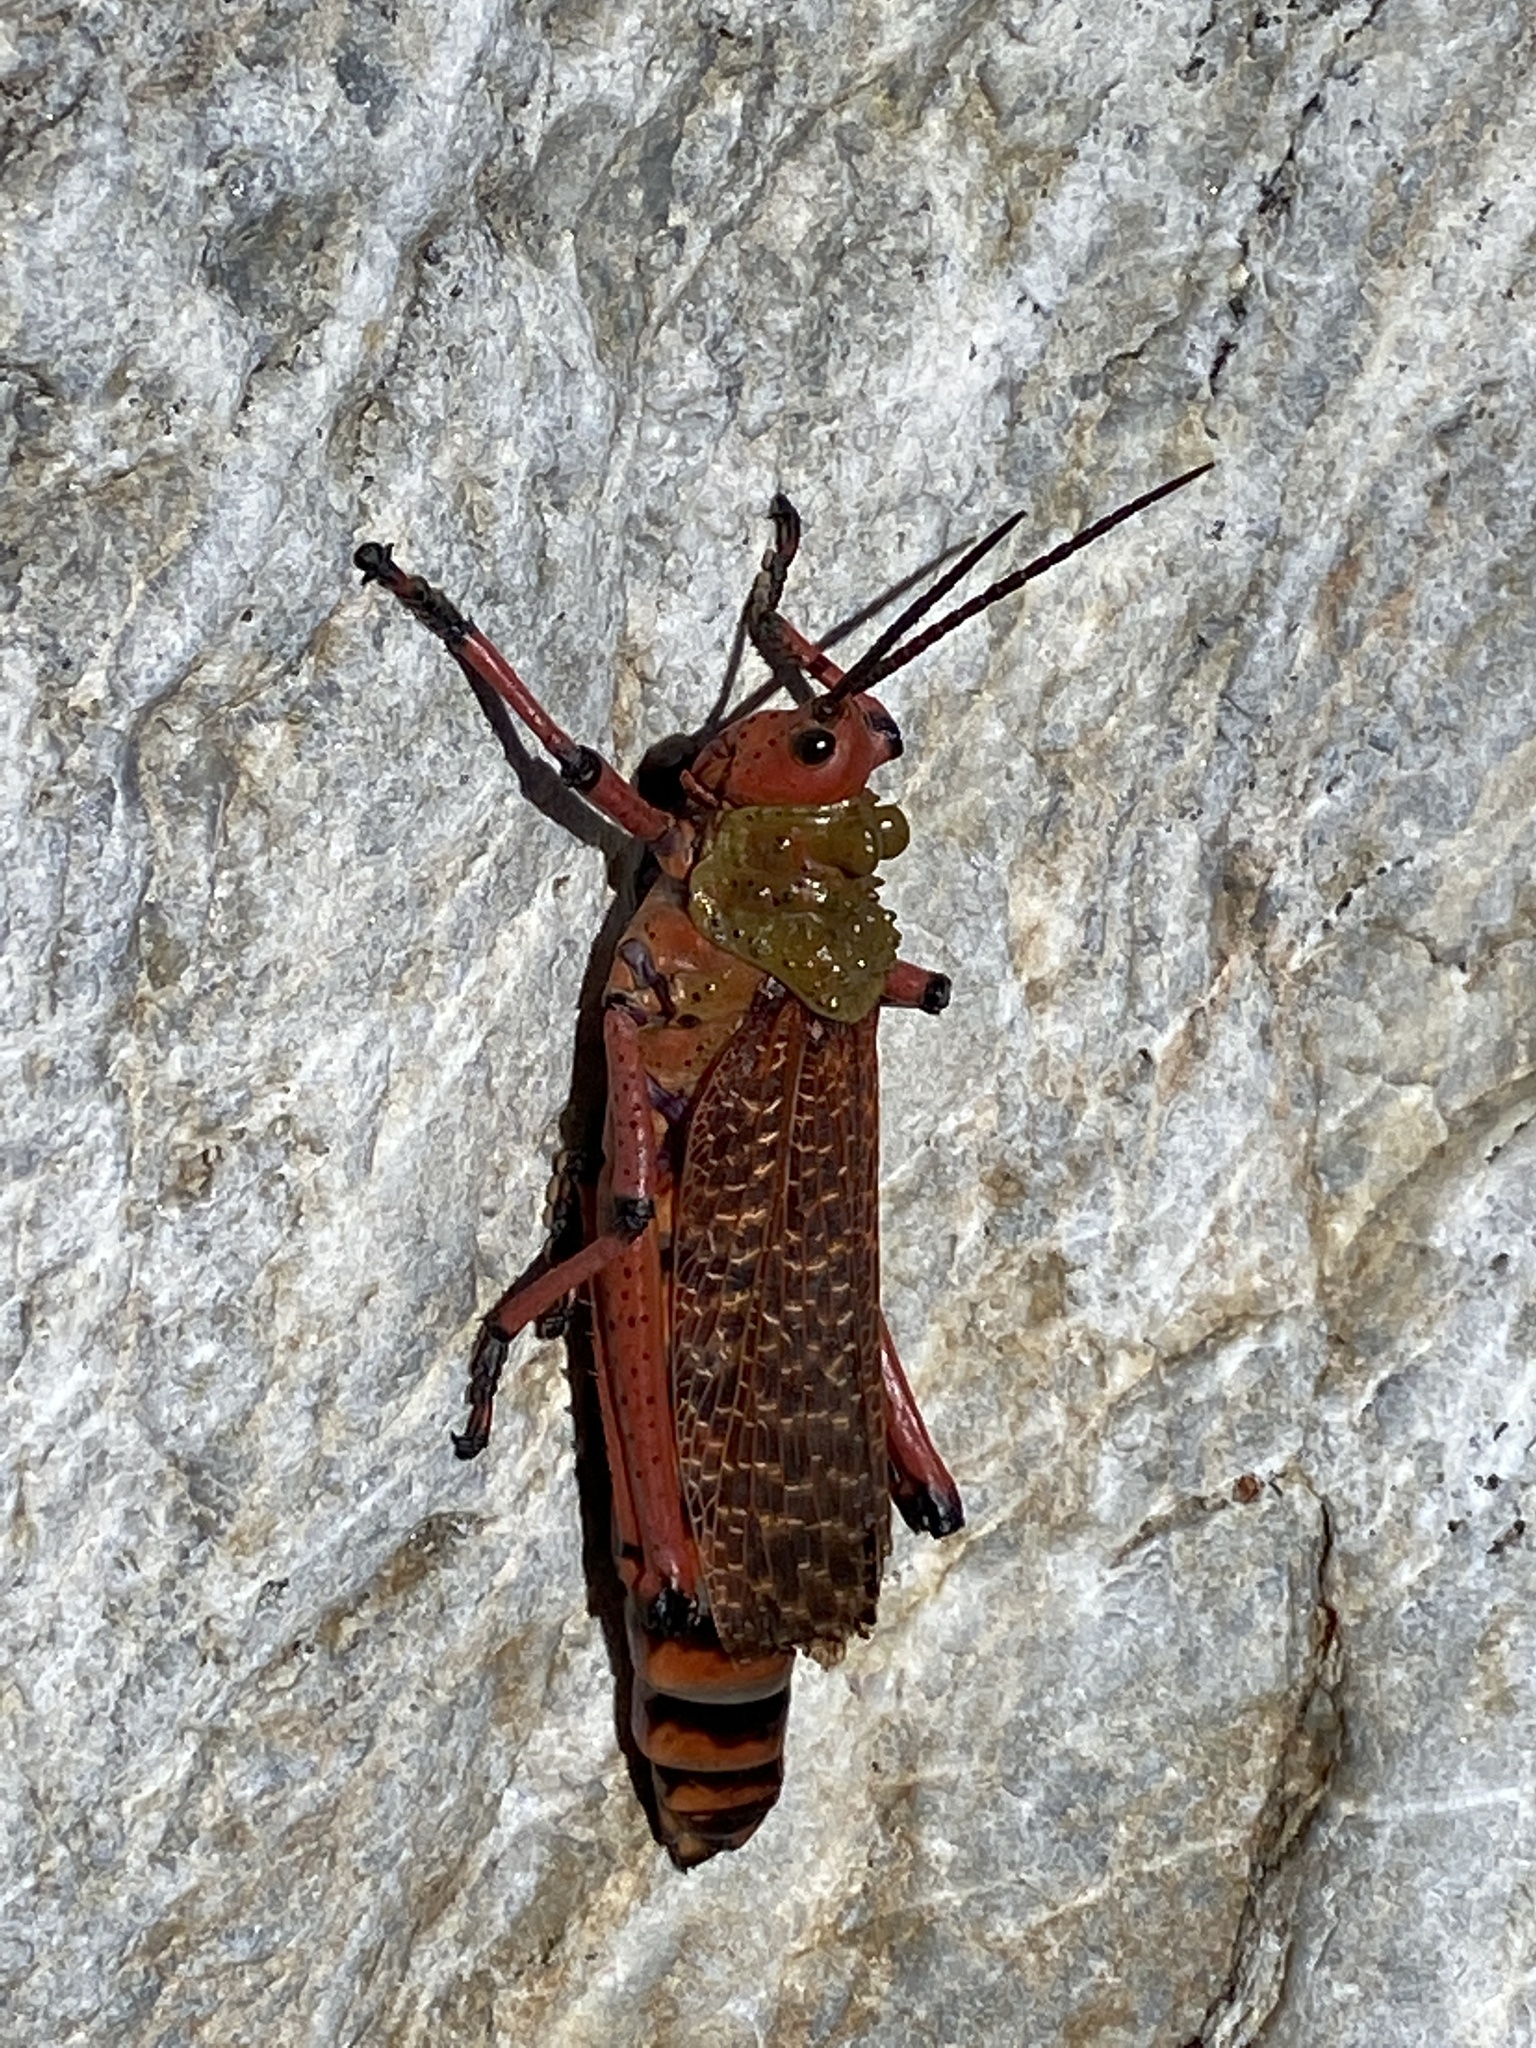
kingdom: Animalia
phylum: Arthropoda
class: Insecta
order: Orthoptera
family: Pyrgomorphidae
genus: Phymateus
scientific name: Phymateus leprosus
